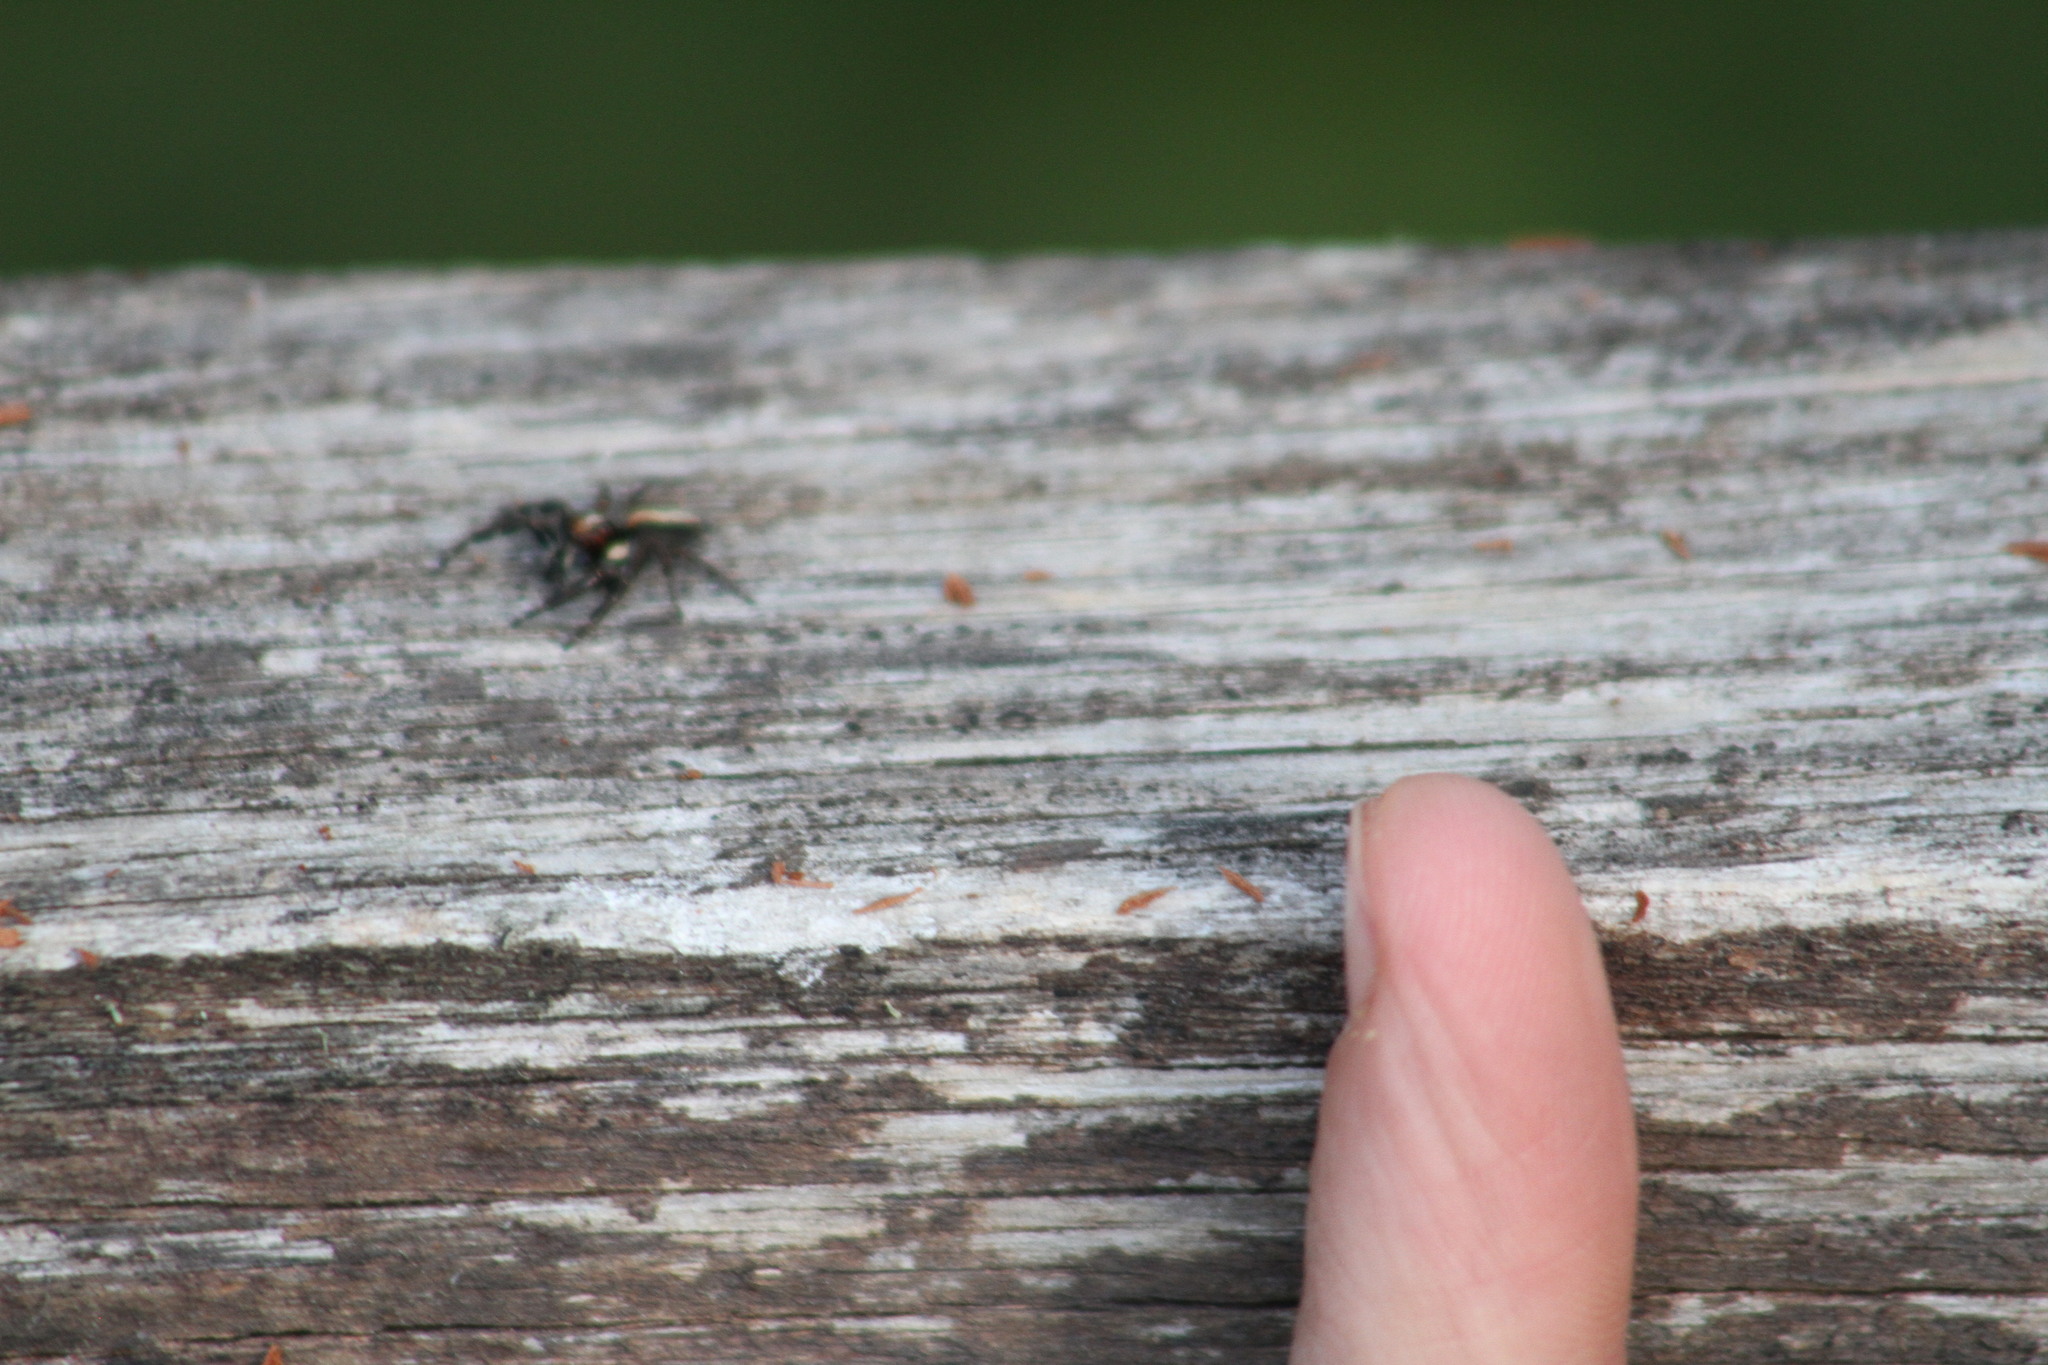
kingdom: Animalia
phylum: Arthropoda
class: Arachnida
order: Araneae
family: Salticidae
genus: Megafreya
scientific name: Megafreya sutrix
